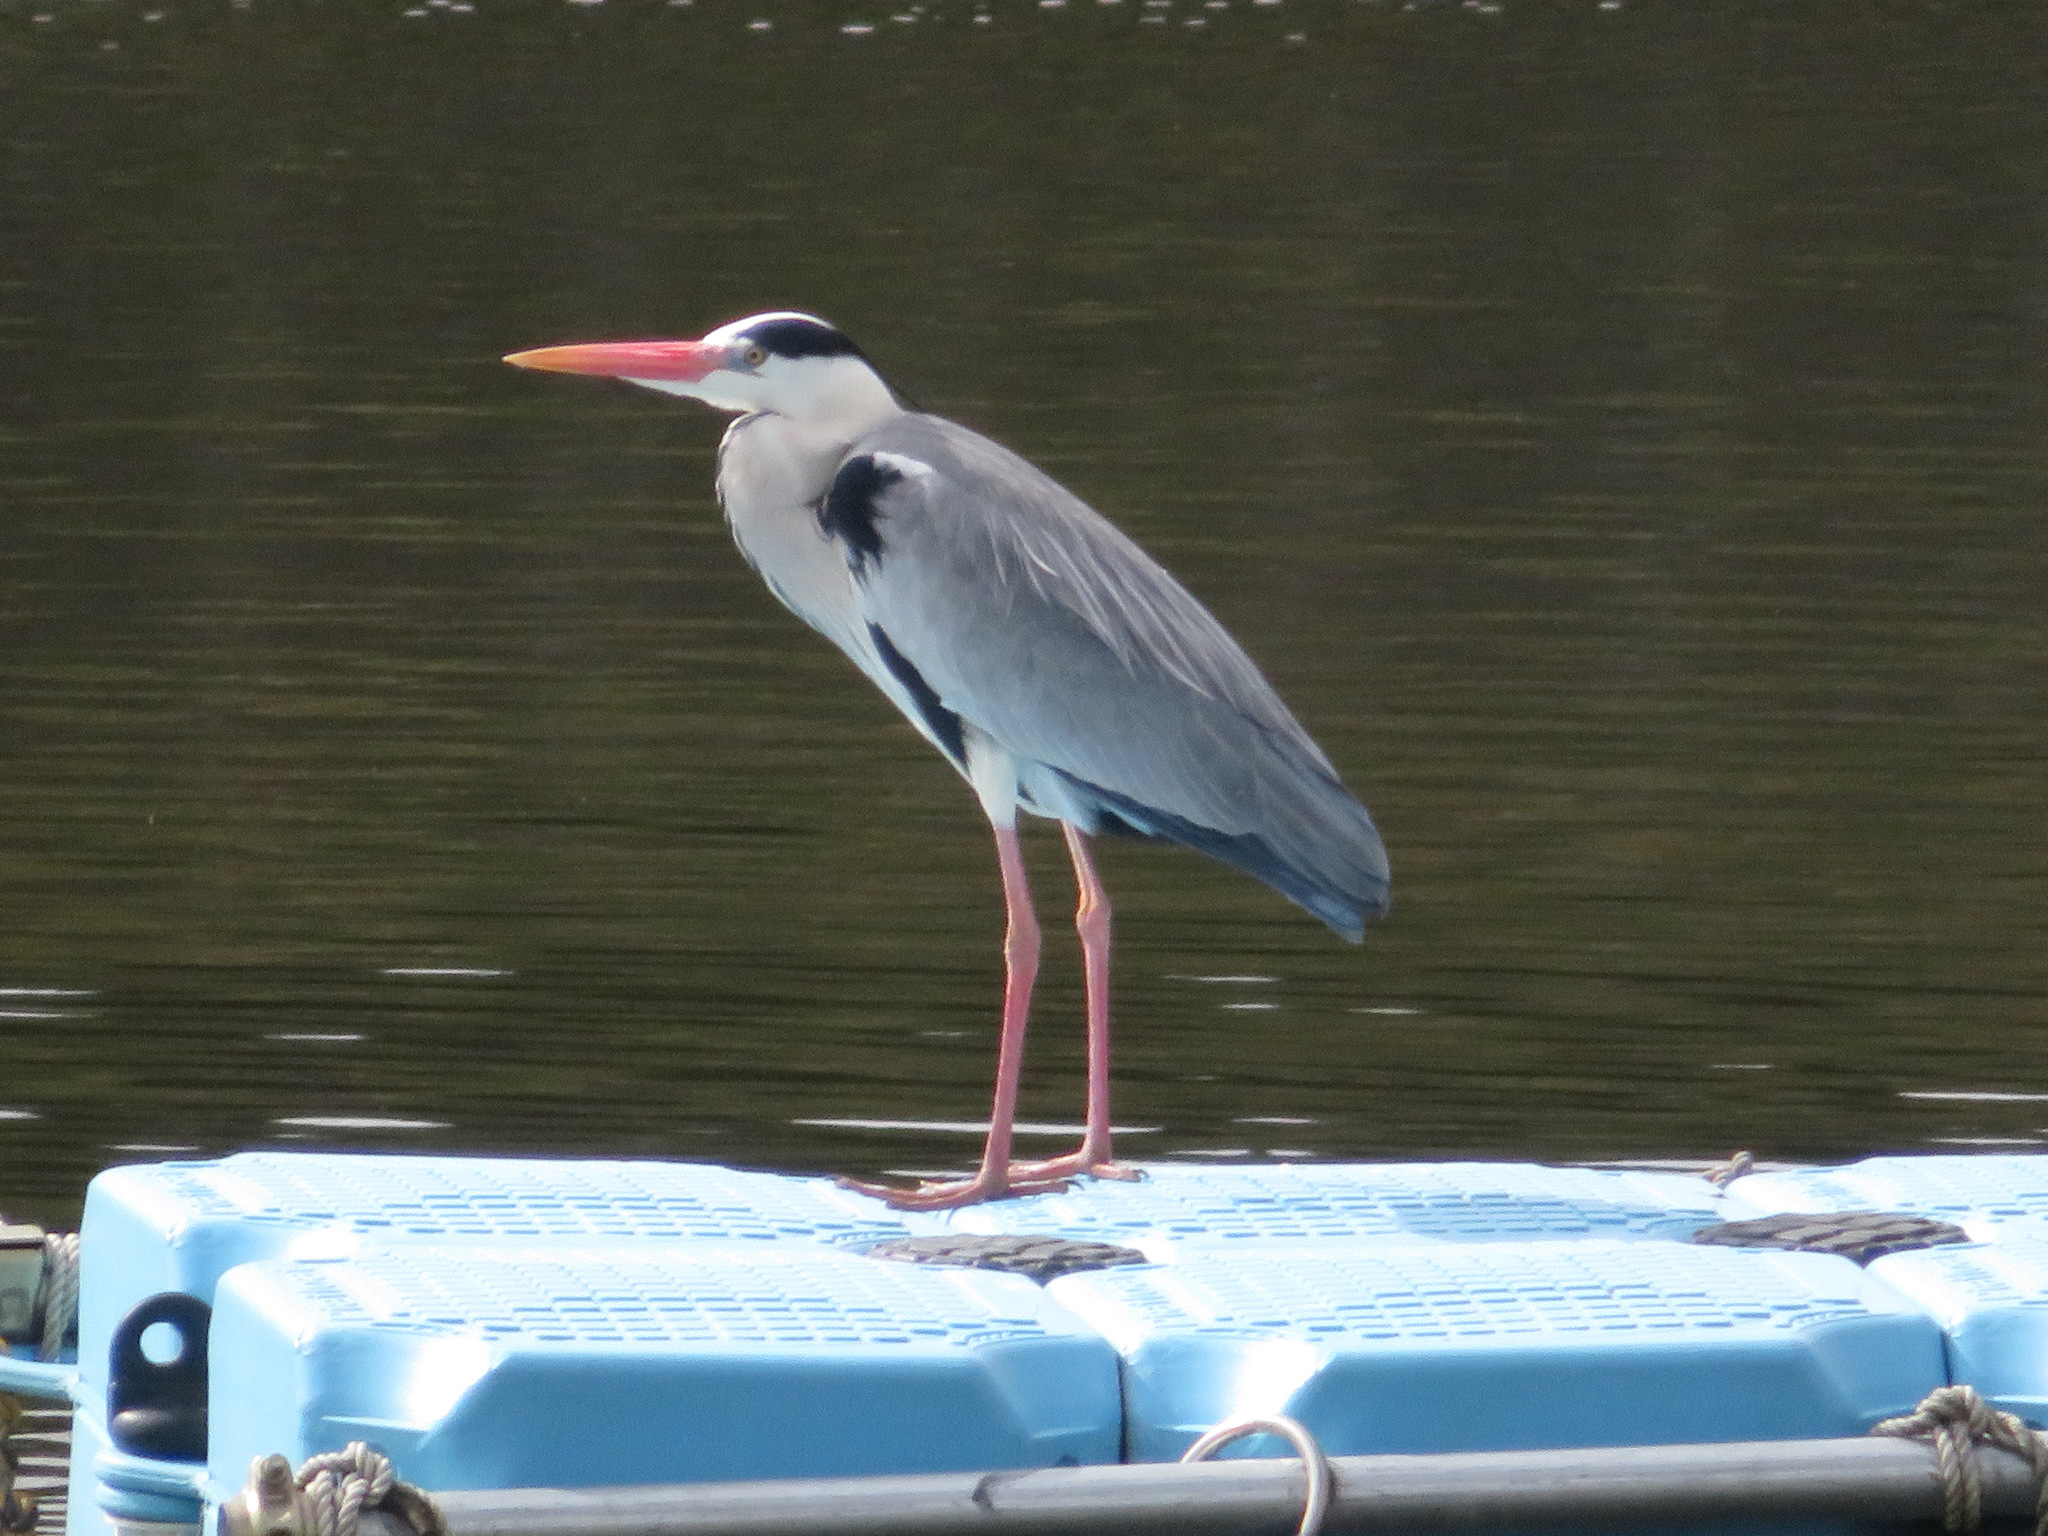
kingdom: Animalia
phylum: Chordata
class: Aves
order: Pelecaniformes
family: Ardeidae
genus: Ardea
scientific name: Ardea cinerea
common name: Grey heron
